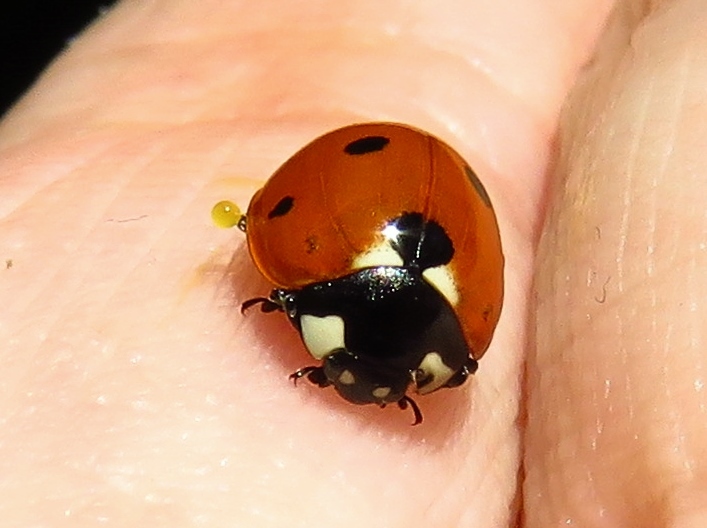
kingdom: Animalia
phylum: Arthropoda
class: Insecta
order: Coleoptera
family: Coccinellidae
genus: Coccinella
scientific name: Coccinella septempunctata
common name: Sevenspotted lady beetle
